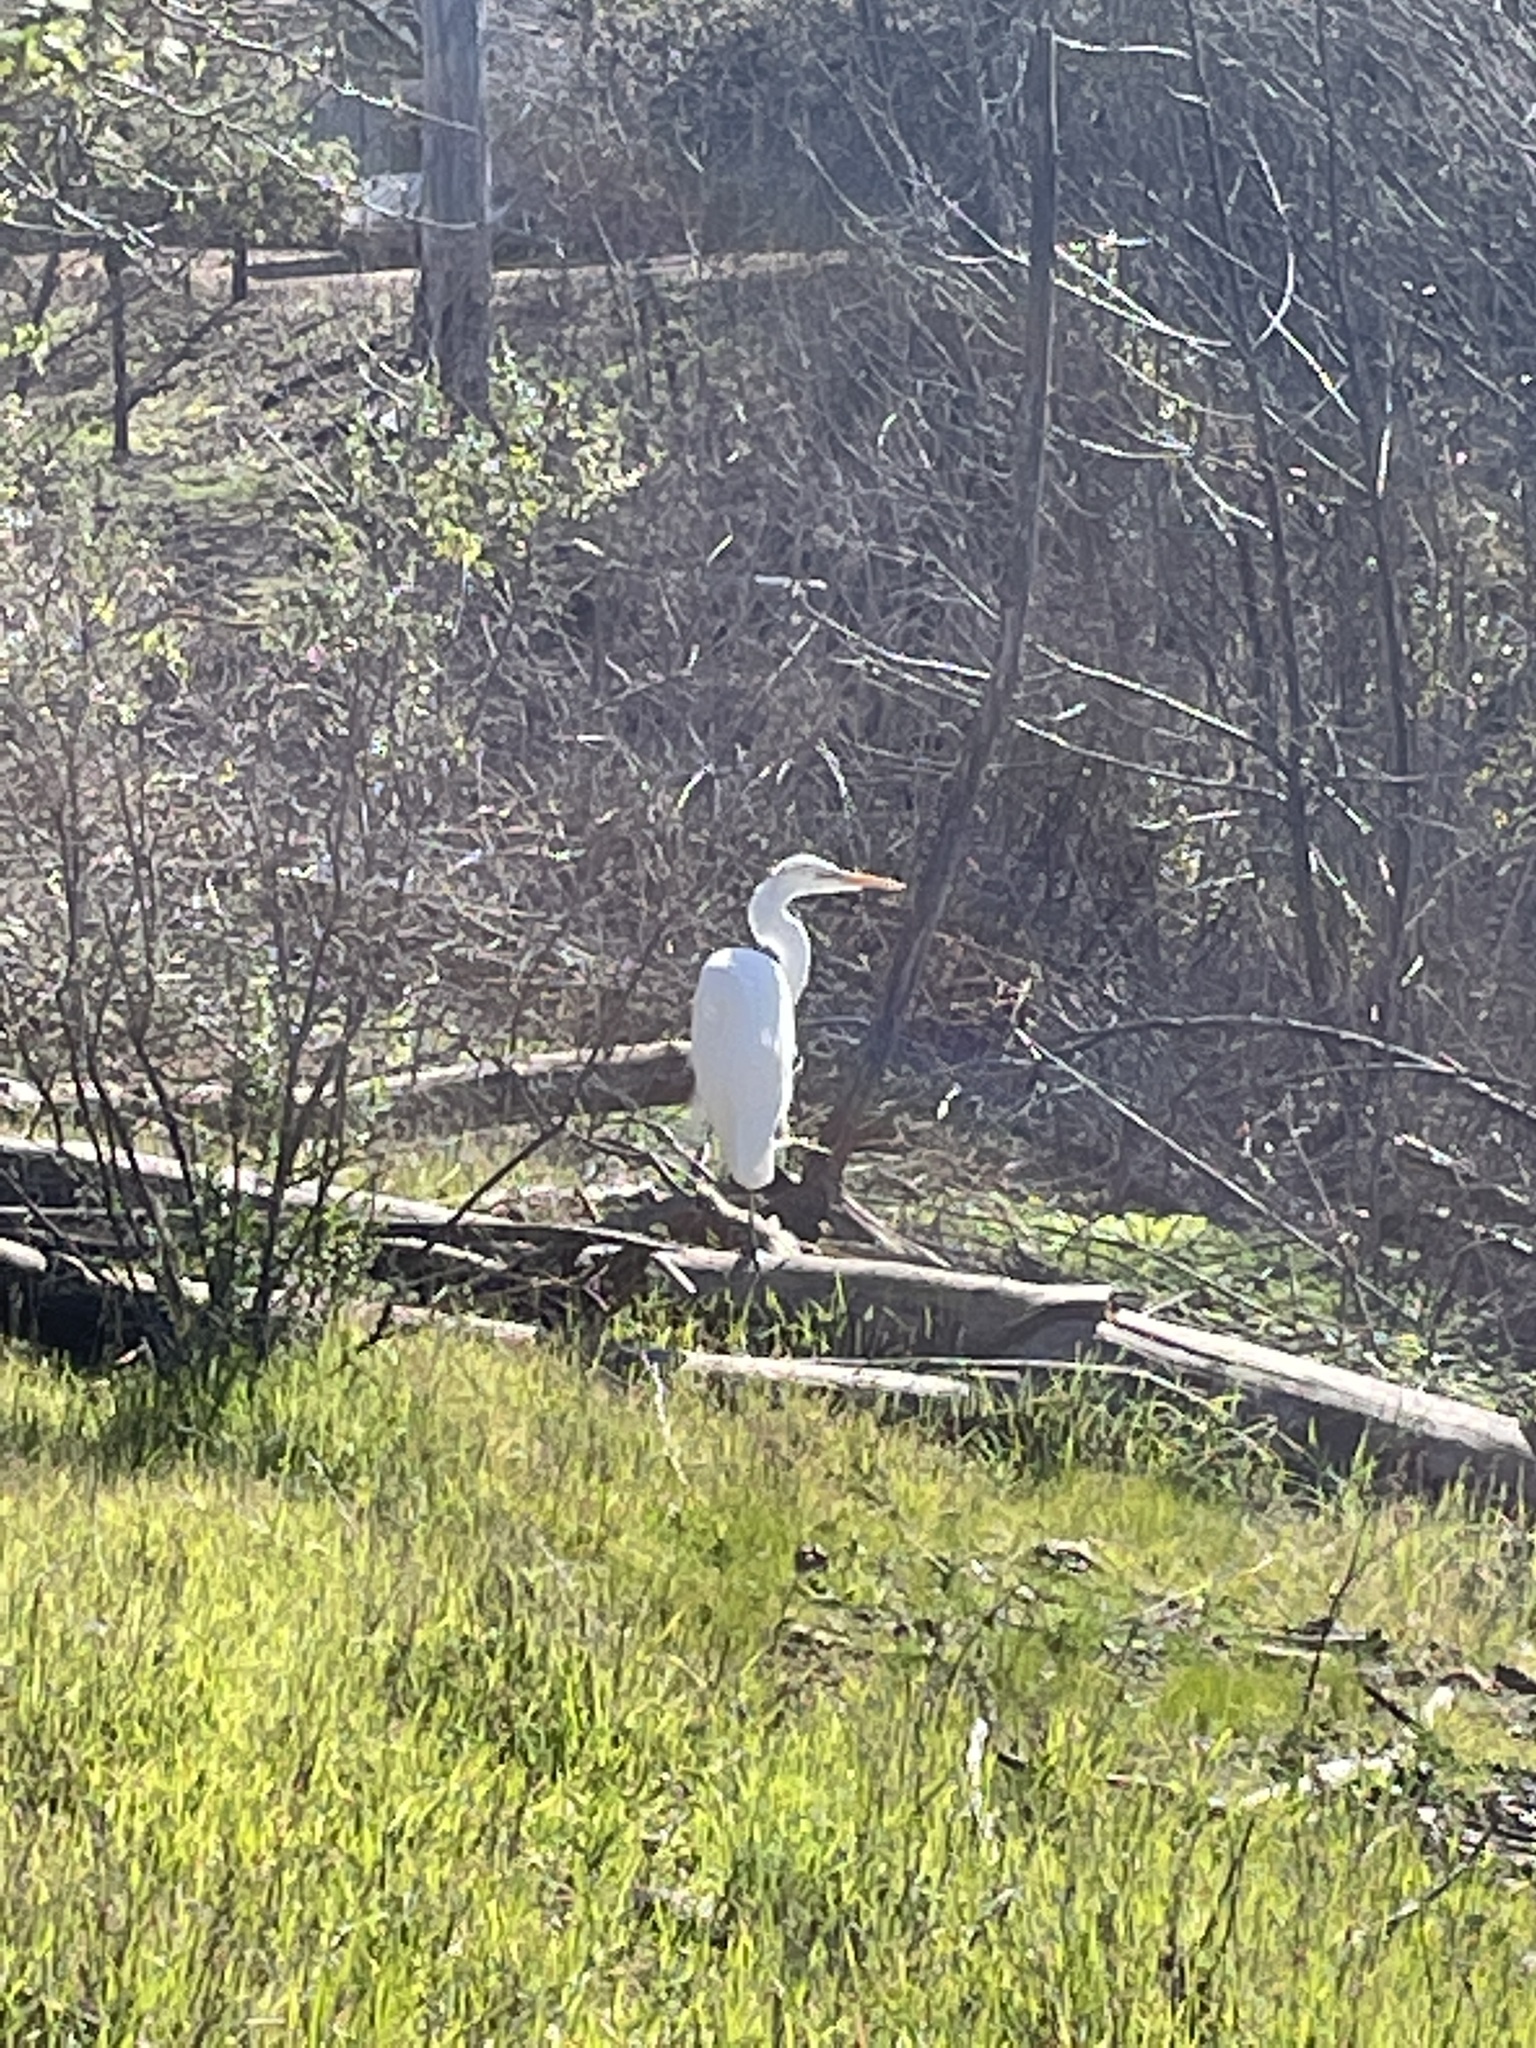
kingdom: Animalia
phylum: Chordata
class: Aves
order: Pelecaniformes
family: Ardeidae
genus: Ardea
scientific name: Ardea alba
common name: Great egret
